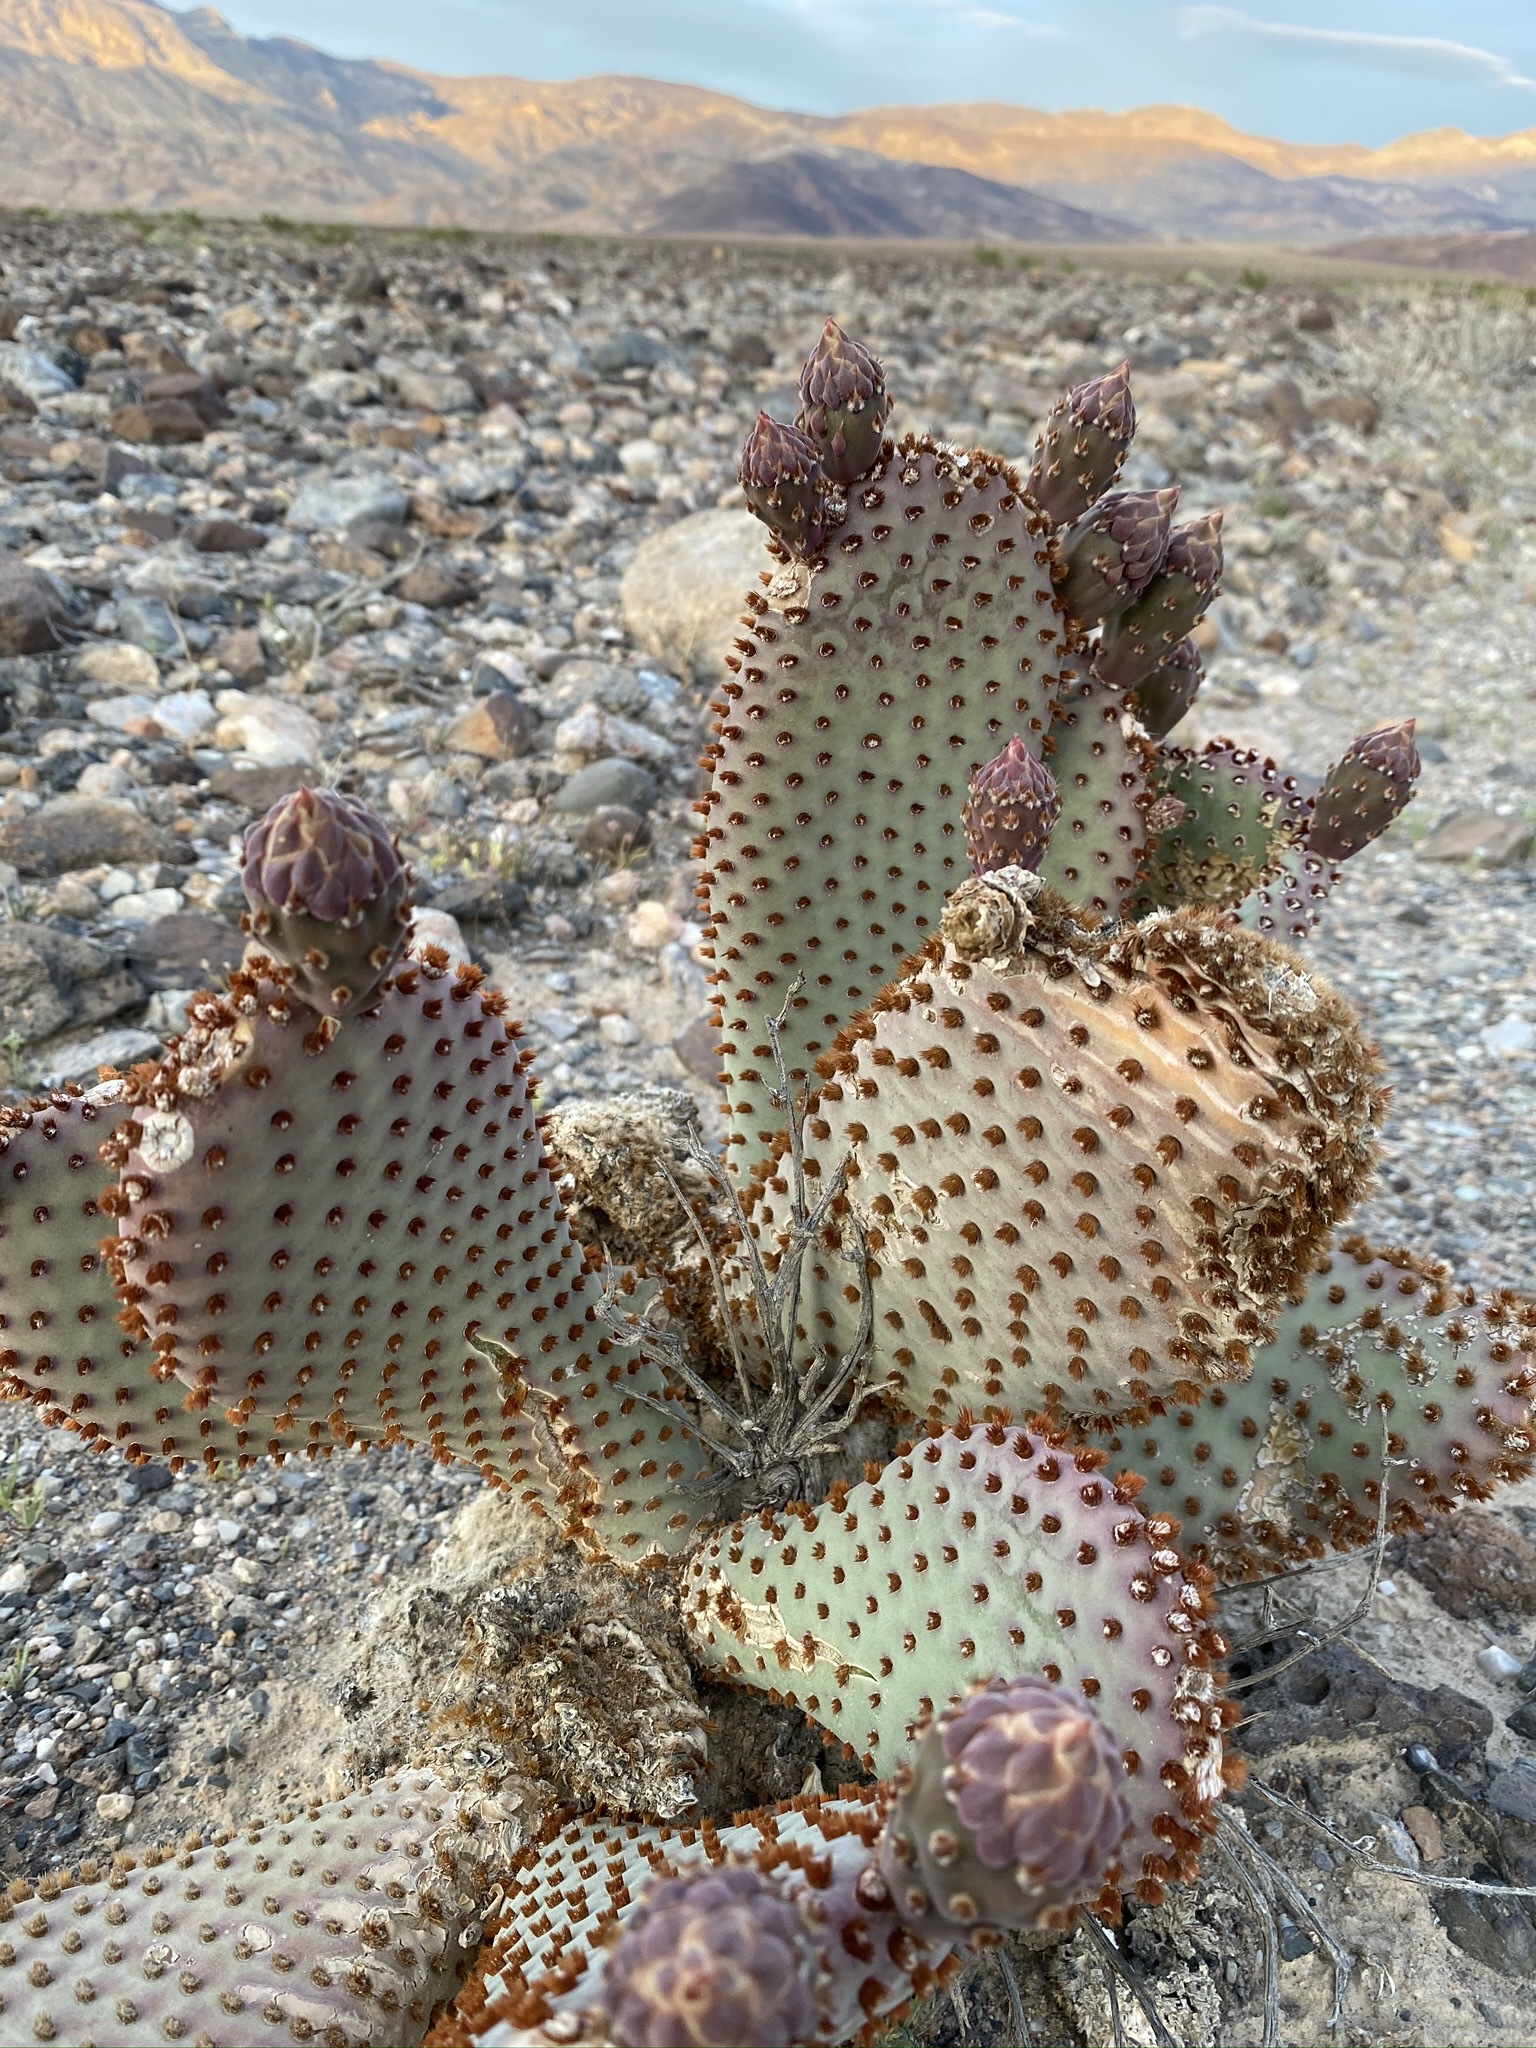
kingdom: Plantae
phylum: Tracheophyta
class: Magnoliopsida
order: Caryophyllales
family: Cactaceae
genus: Opuntia
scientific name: Opuntia basilaris
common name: Beavertail prickly-pear
